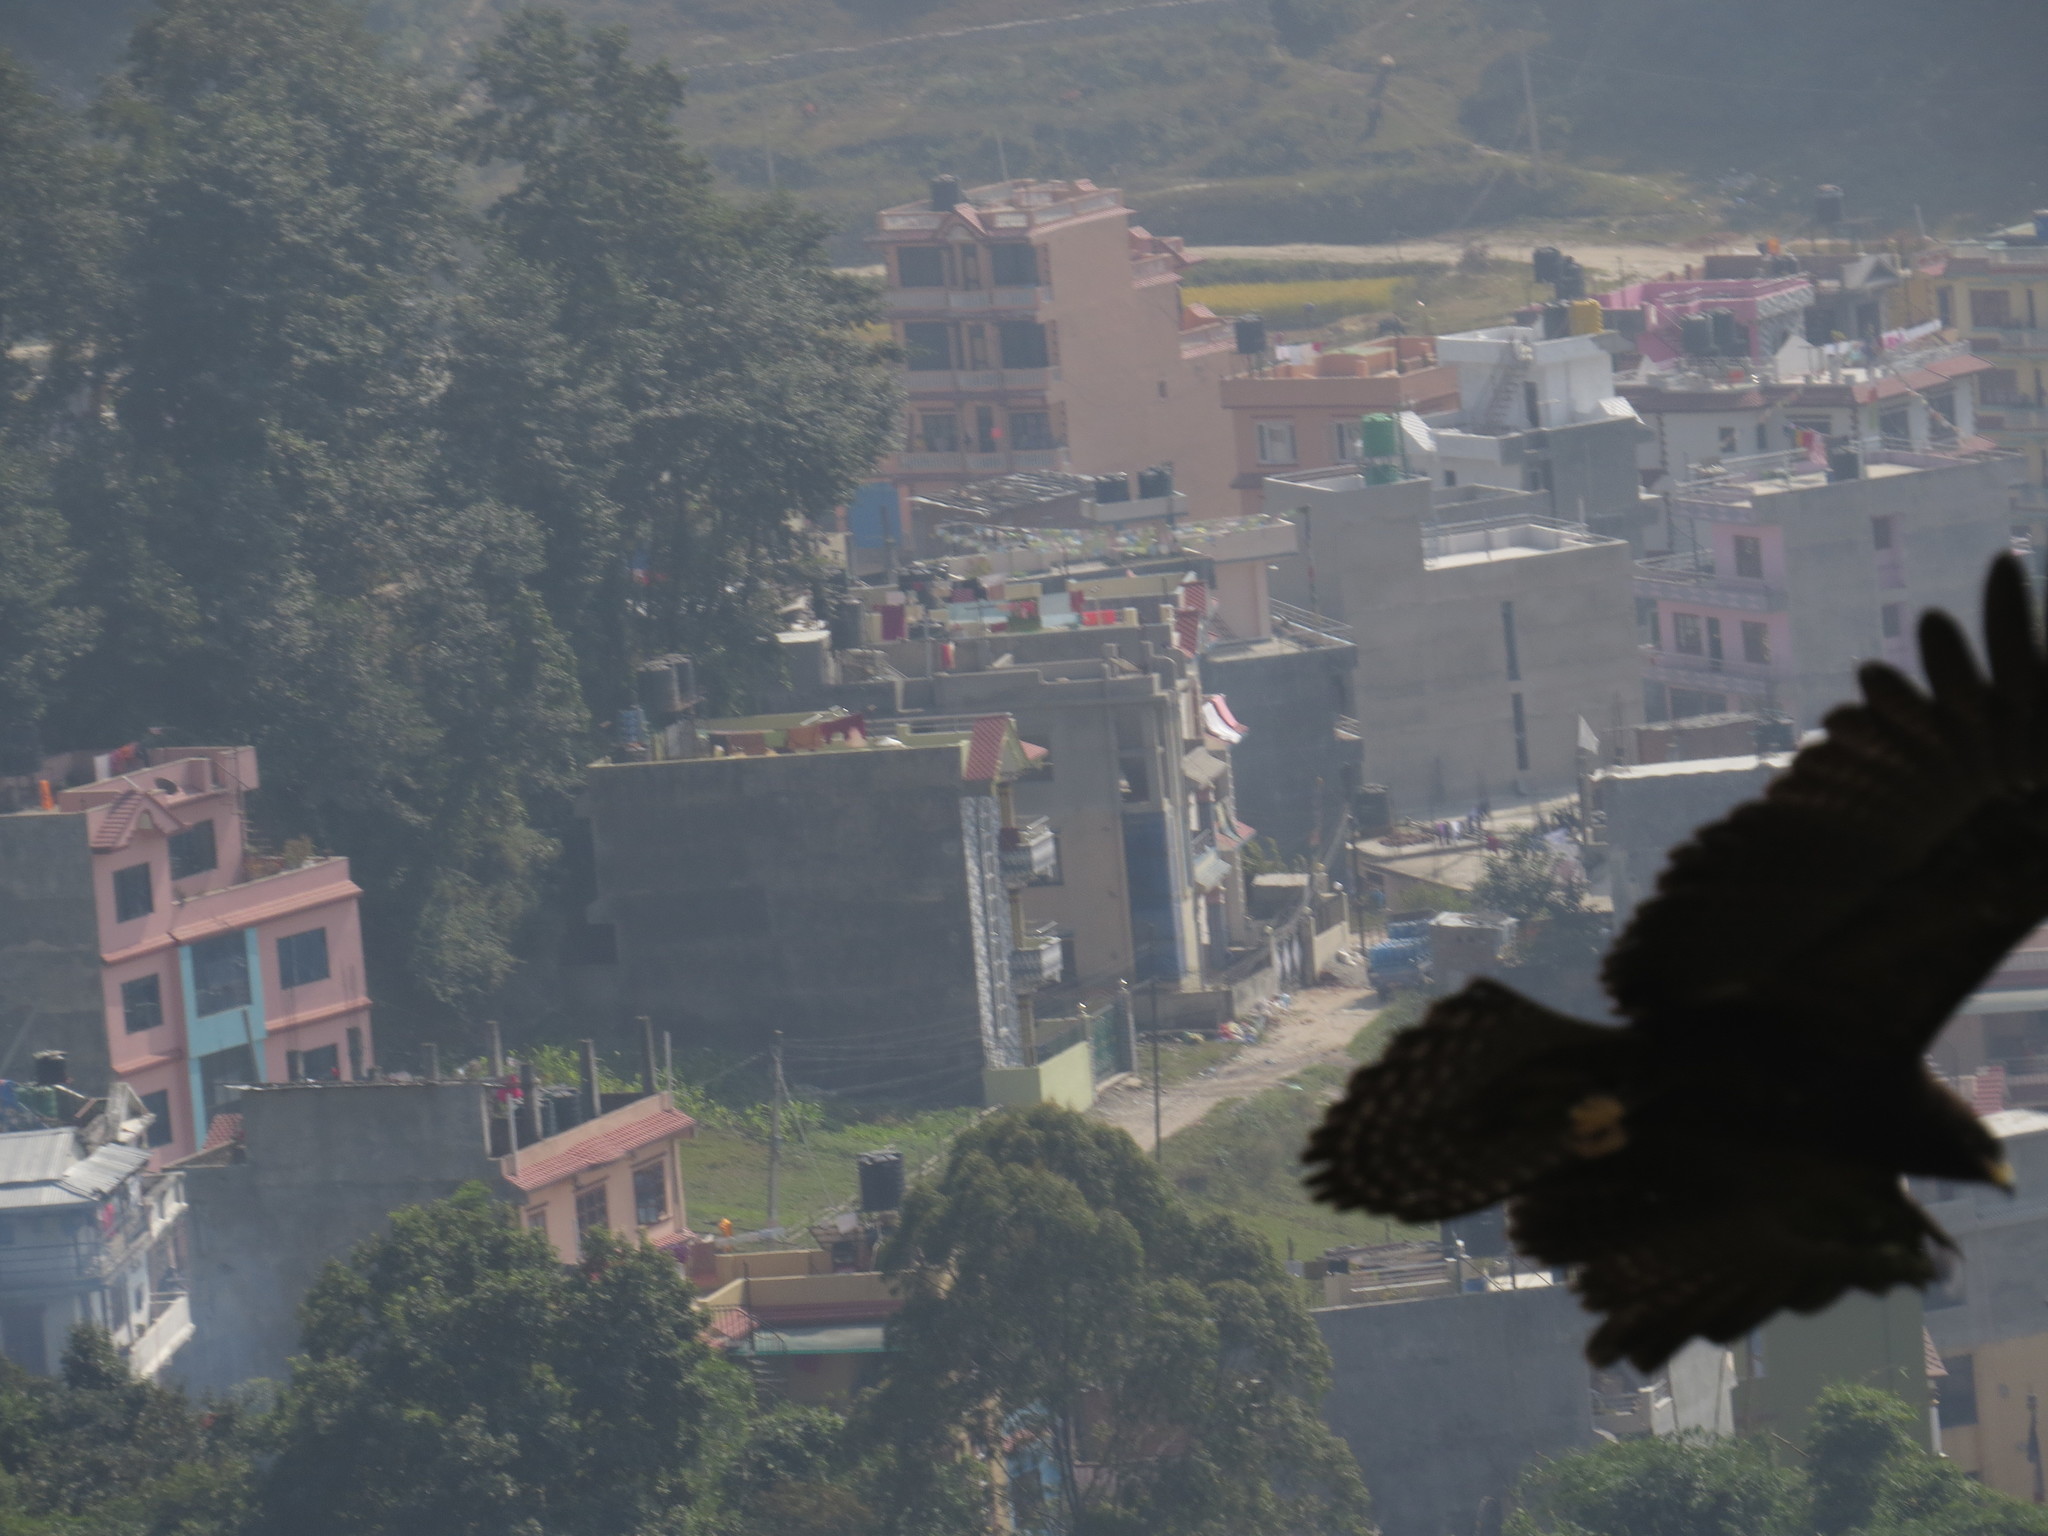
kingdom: Animalia
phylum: Chordata
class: Aves
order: Accipitriformes
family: Accipitridae
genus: Ictinaetus
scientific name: Ictinaetus malayensis
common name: Black eagle
